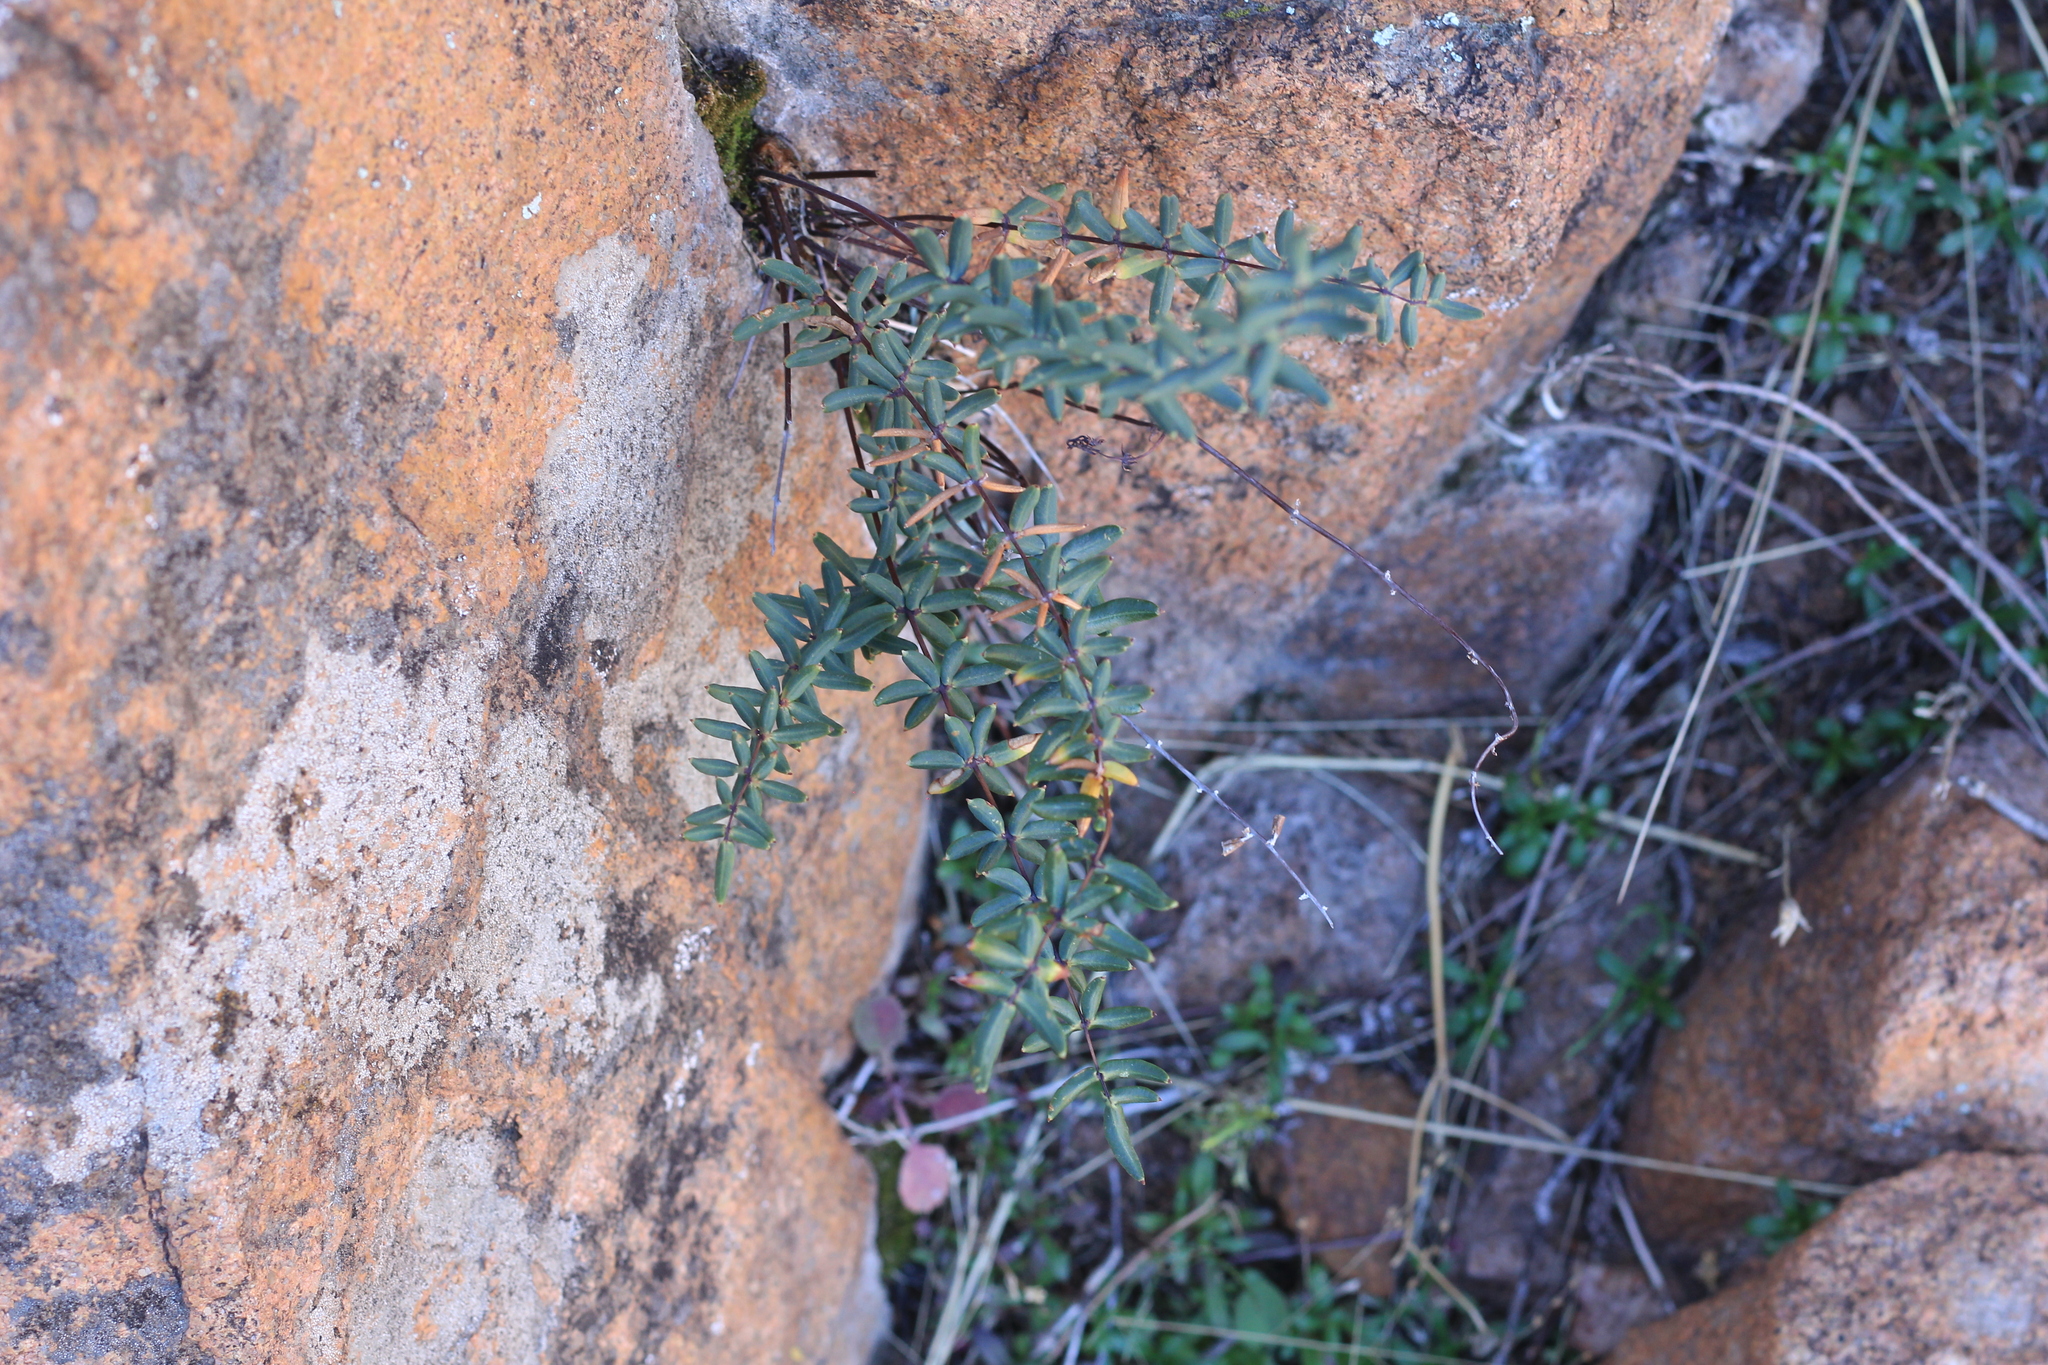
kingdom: Plantae
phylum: Tracheophyta
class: Polypodiopsida
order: Polypodiales
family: Pteridaceae
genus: Pellaea
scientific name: Pellaea ternifolia
